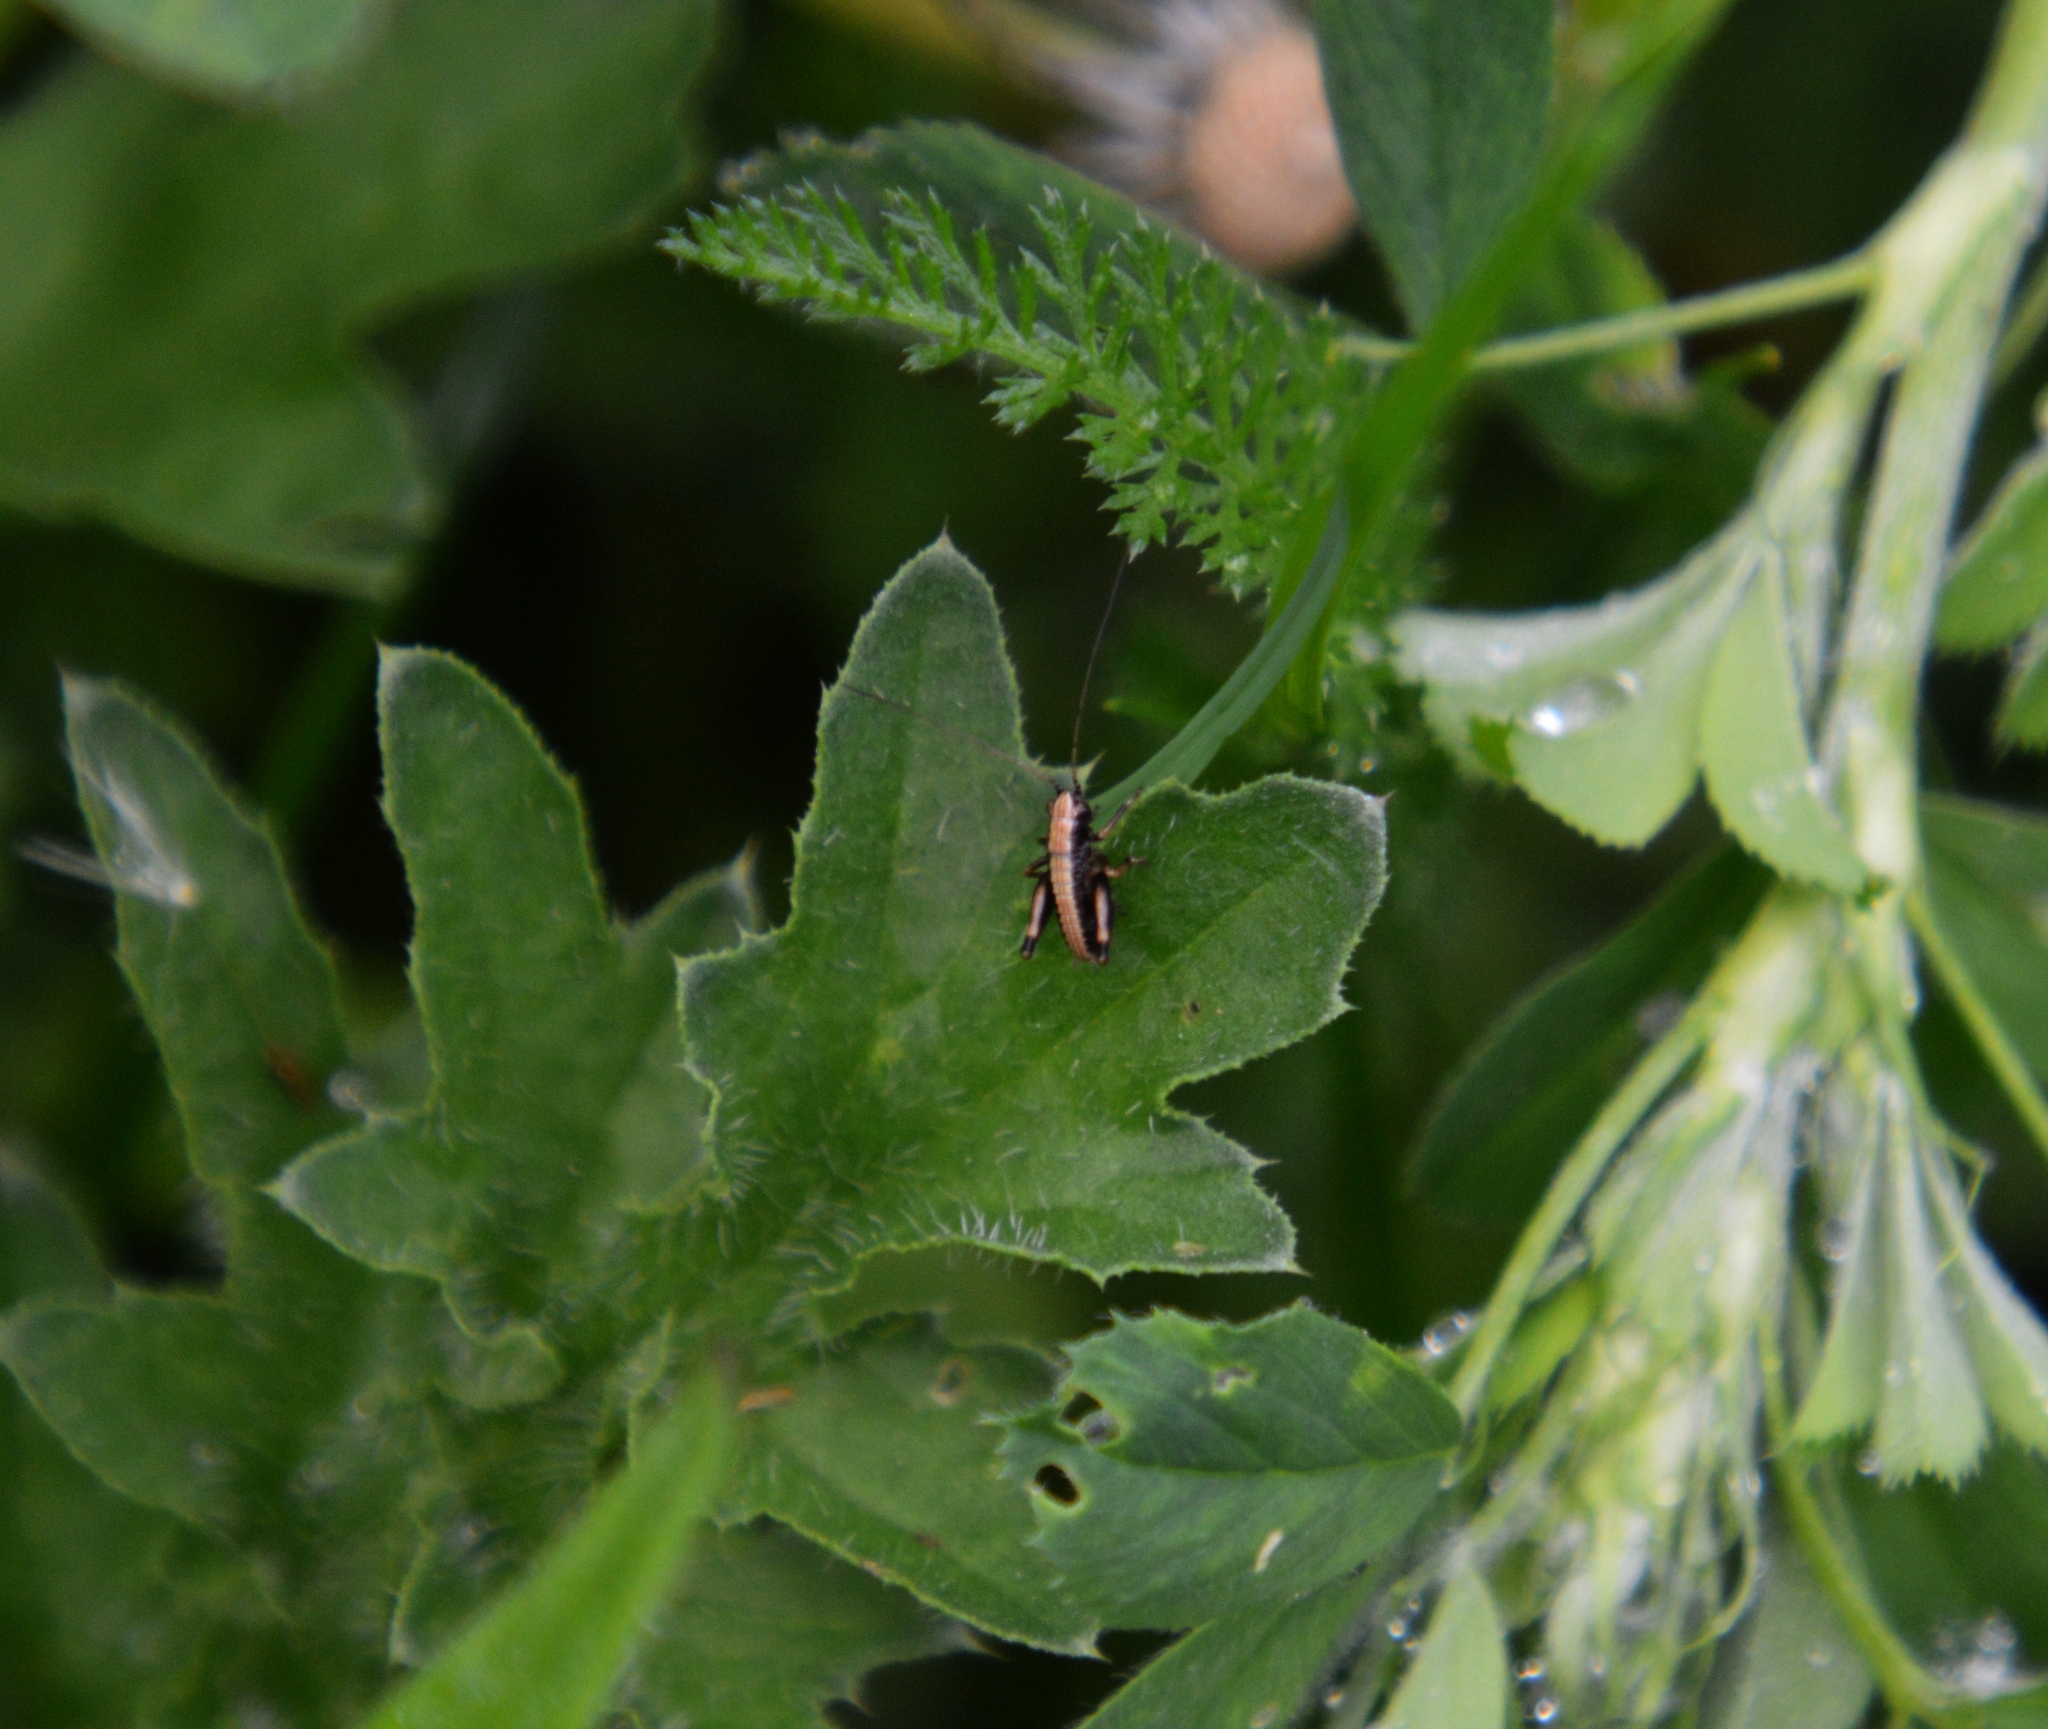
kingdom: Animalia
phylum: Arthropoda
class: Insecta
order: Orthoptera
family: Tettigoniidae
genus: Pholidoptera
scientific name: Pholidoptera griseoaptera
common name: Dark bush-cricket
